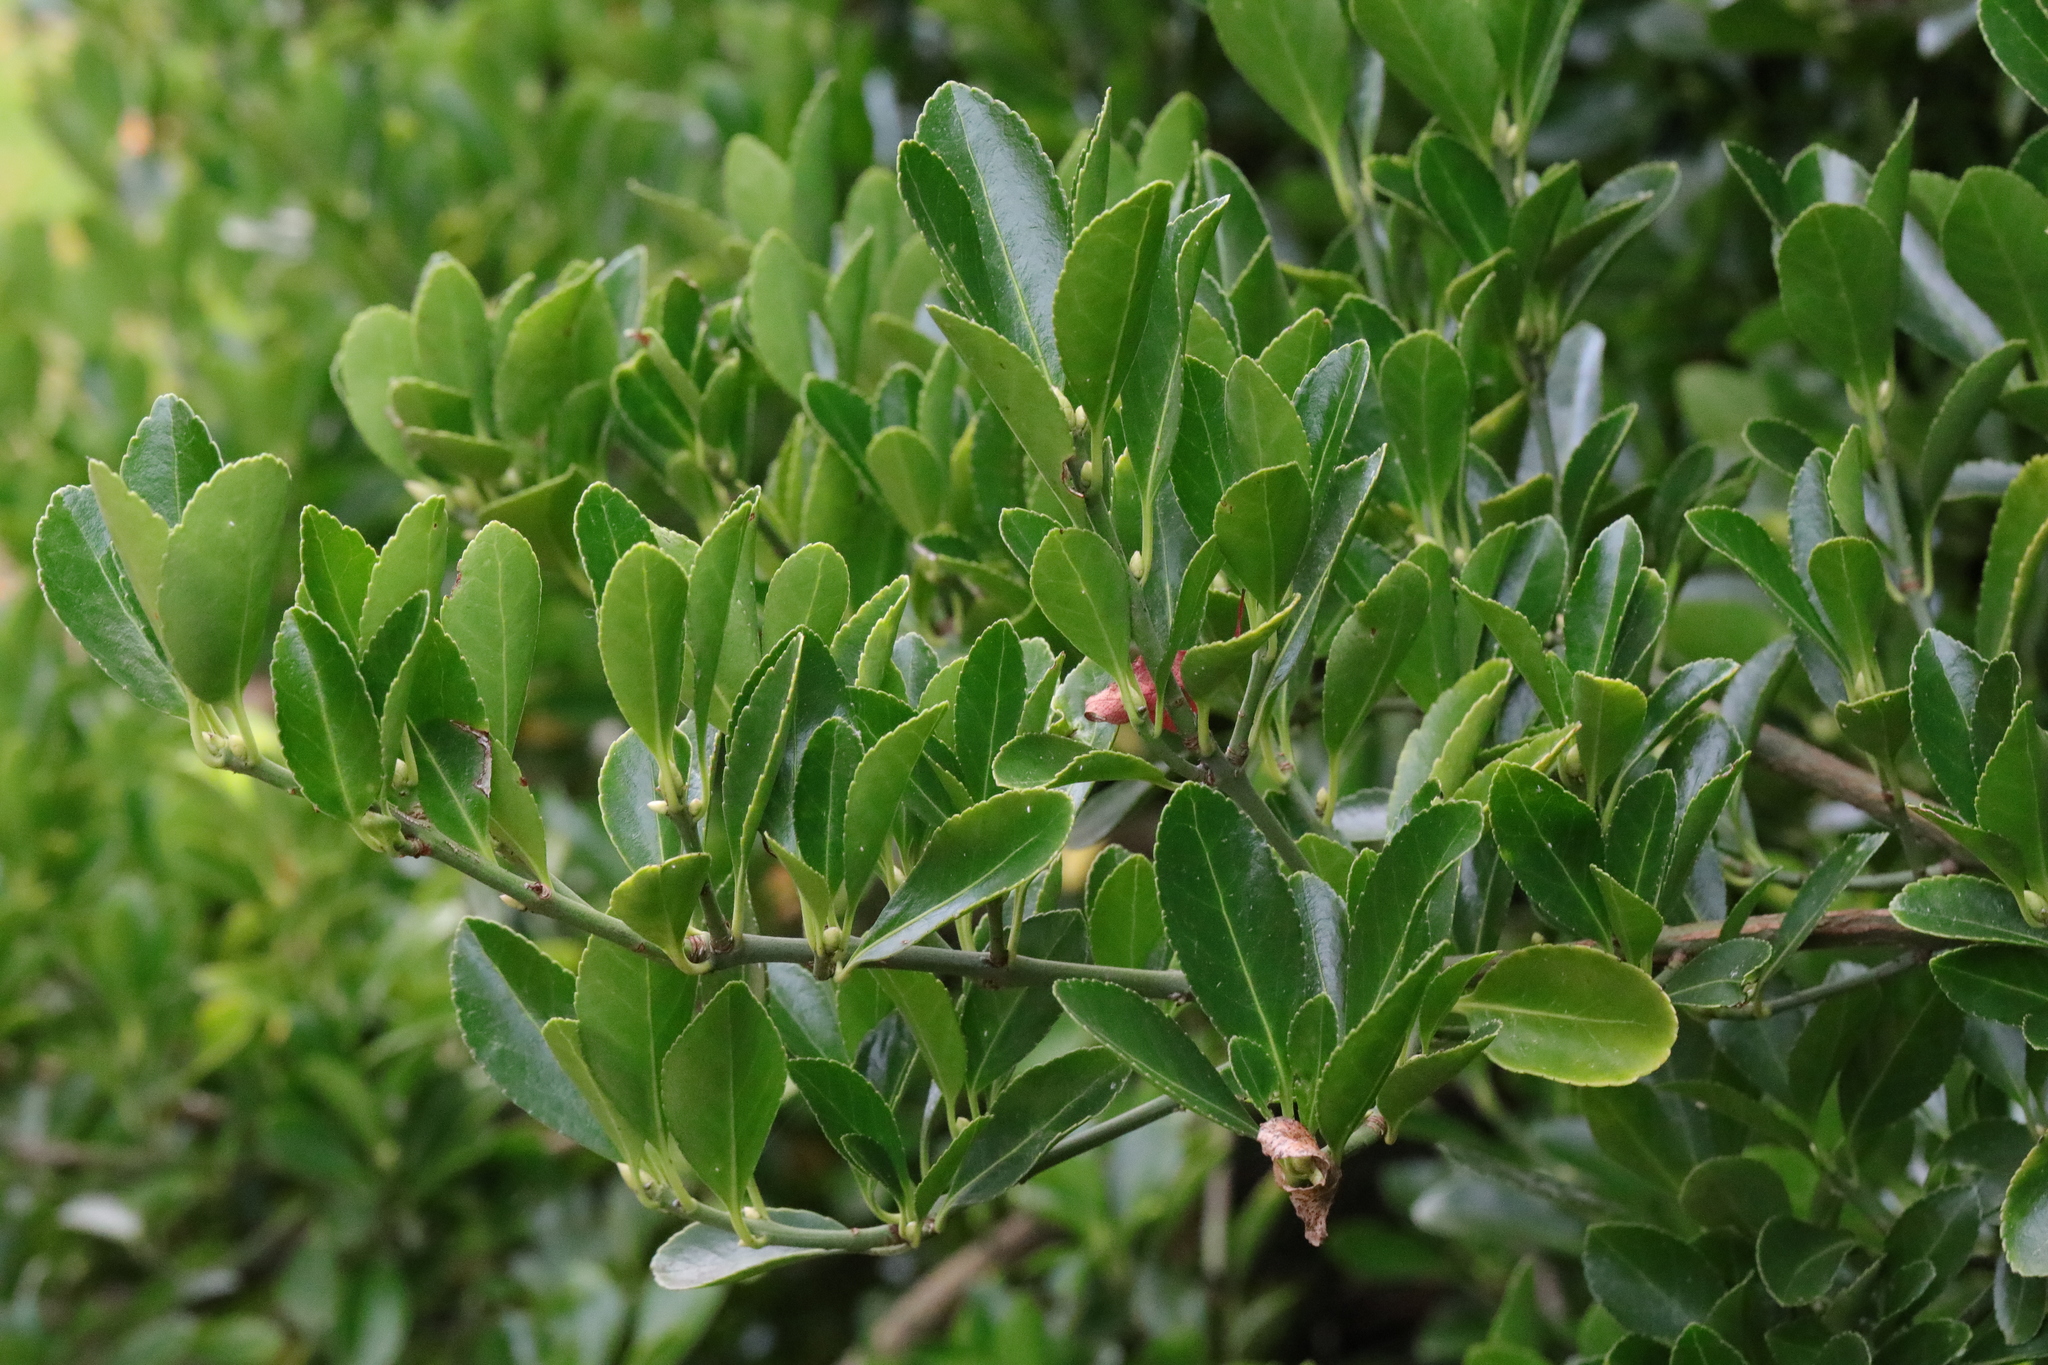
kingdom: Plantae
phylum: Tracheophyta
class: Magnoliopsida
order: Celastrales
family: Celastraceae
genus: Euonymus
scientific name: Euonymus japonicus
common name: Japanese spindletree
